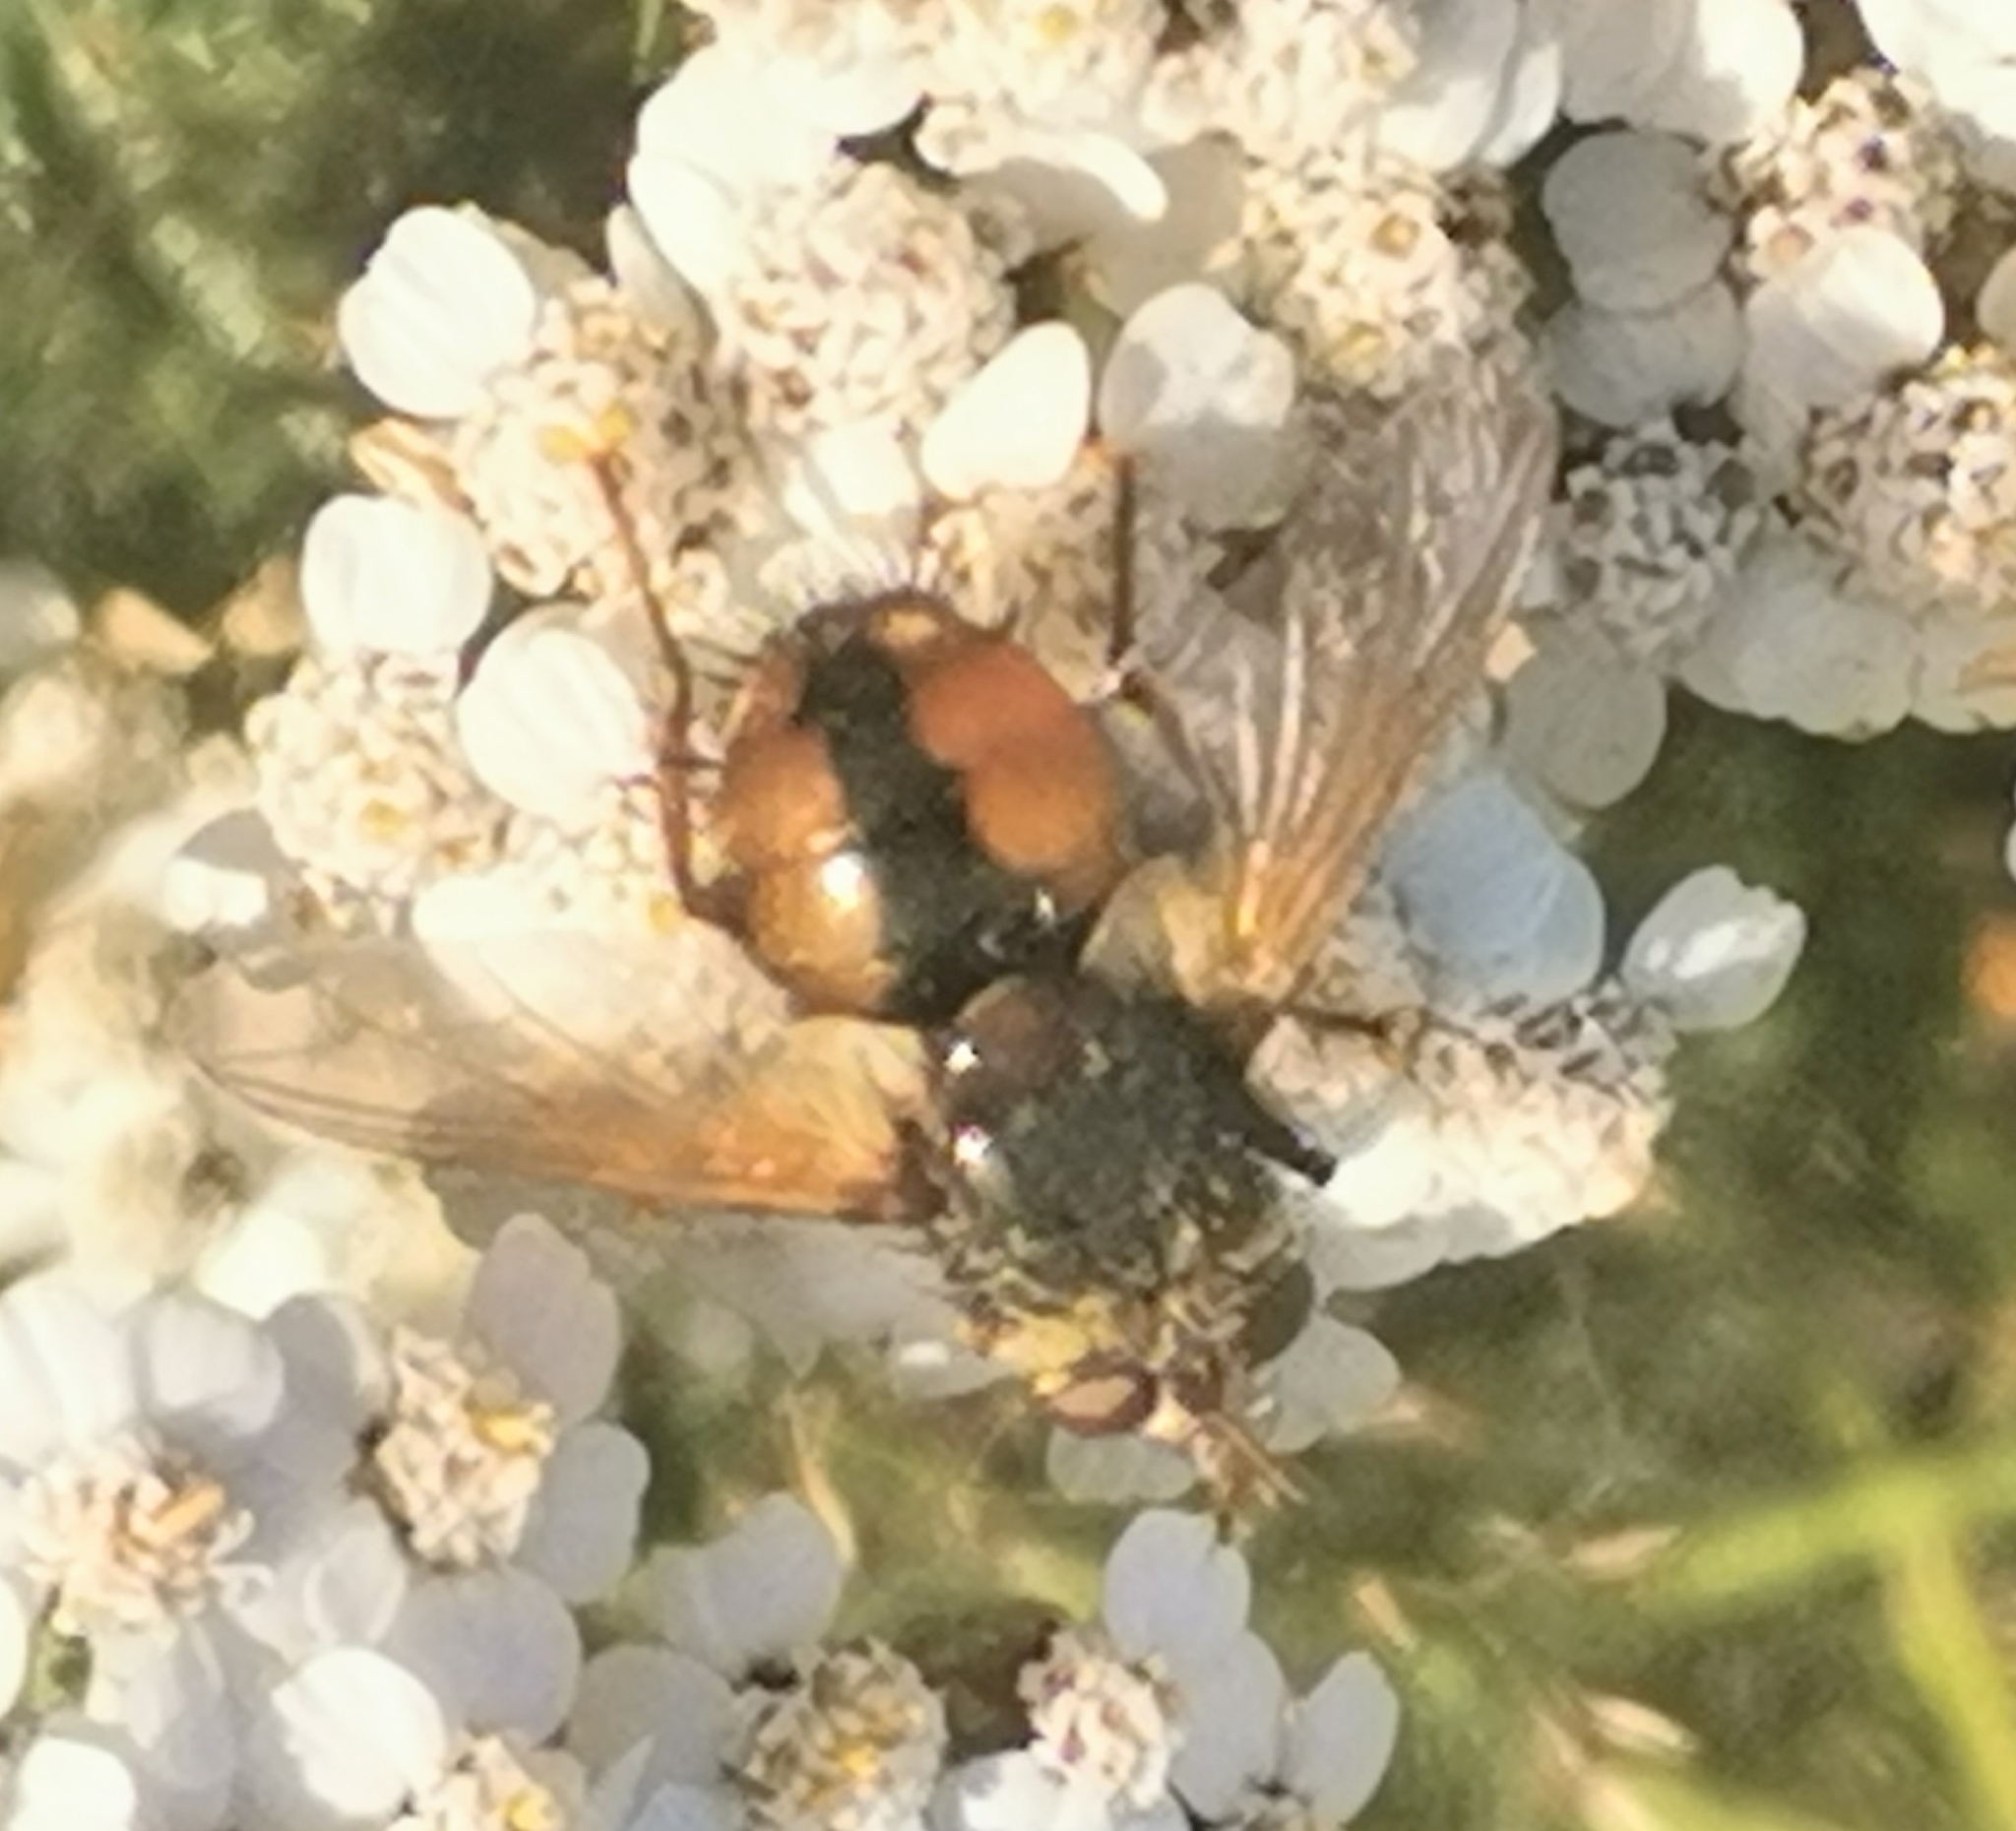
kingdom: Animalia
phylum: Arthropoda
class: Insecta
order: Diptera
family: Tachinidae
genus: Tachina
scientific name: Tachina fera
